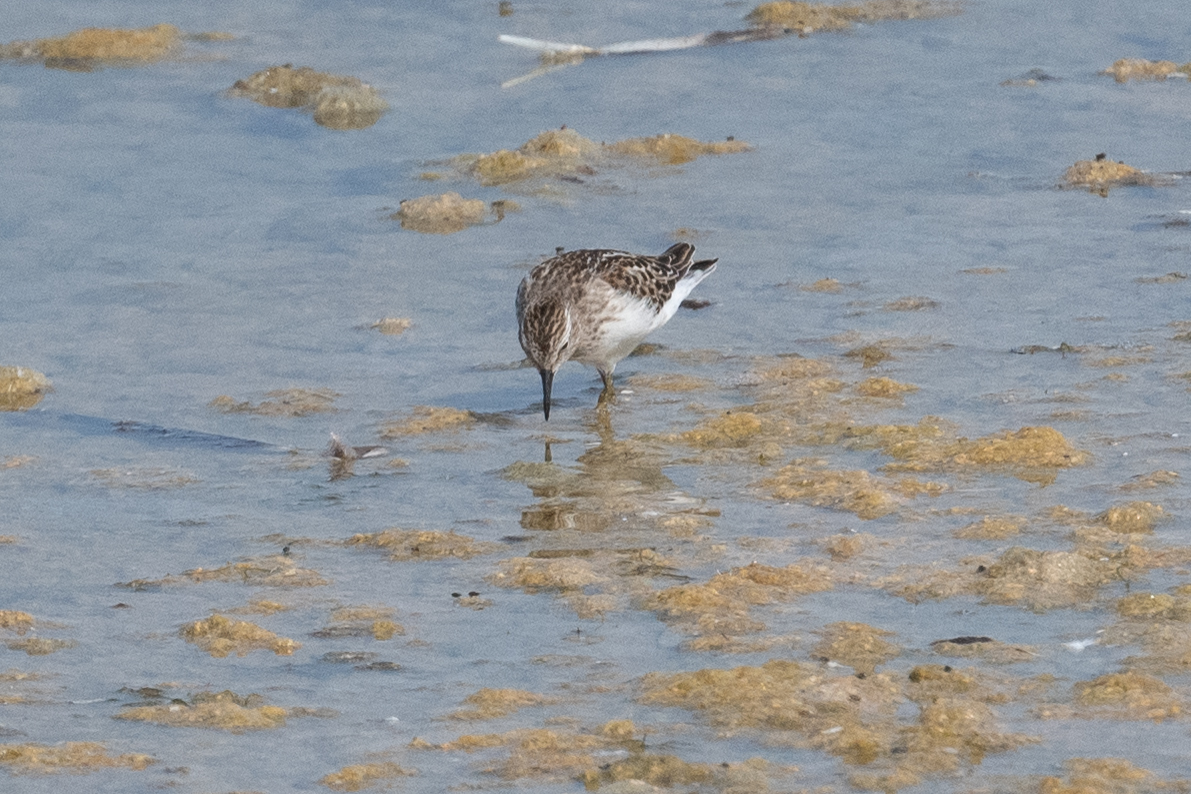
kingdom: Animalia
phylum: Chordata
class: Aves
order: Charadriiformes
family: Scolopacidae
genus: Calidris
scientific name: Calidris minutilla
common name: Least sandpiper
